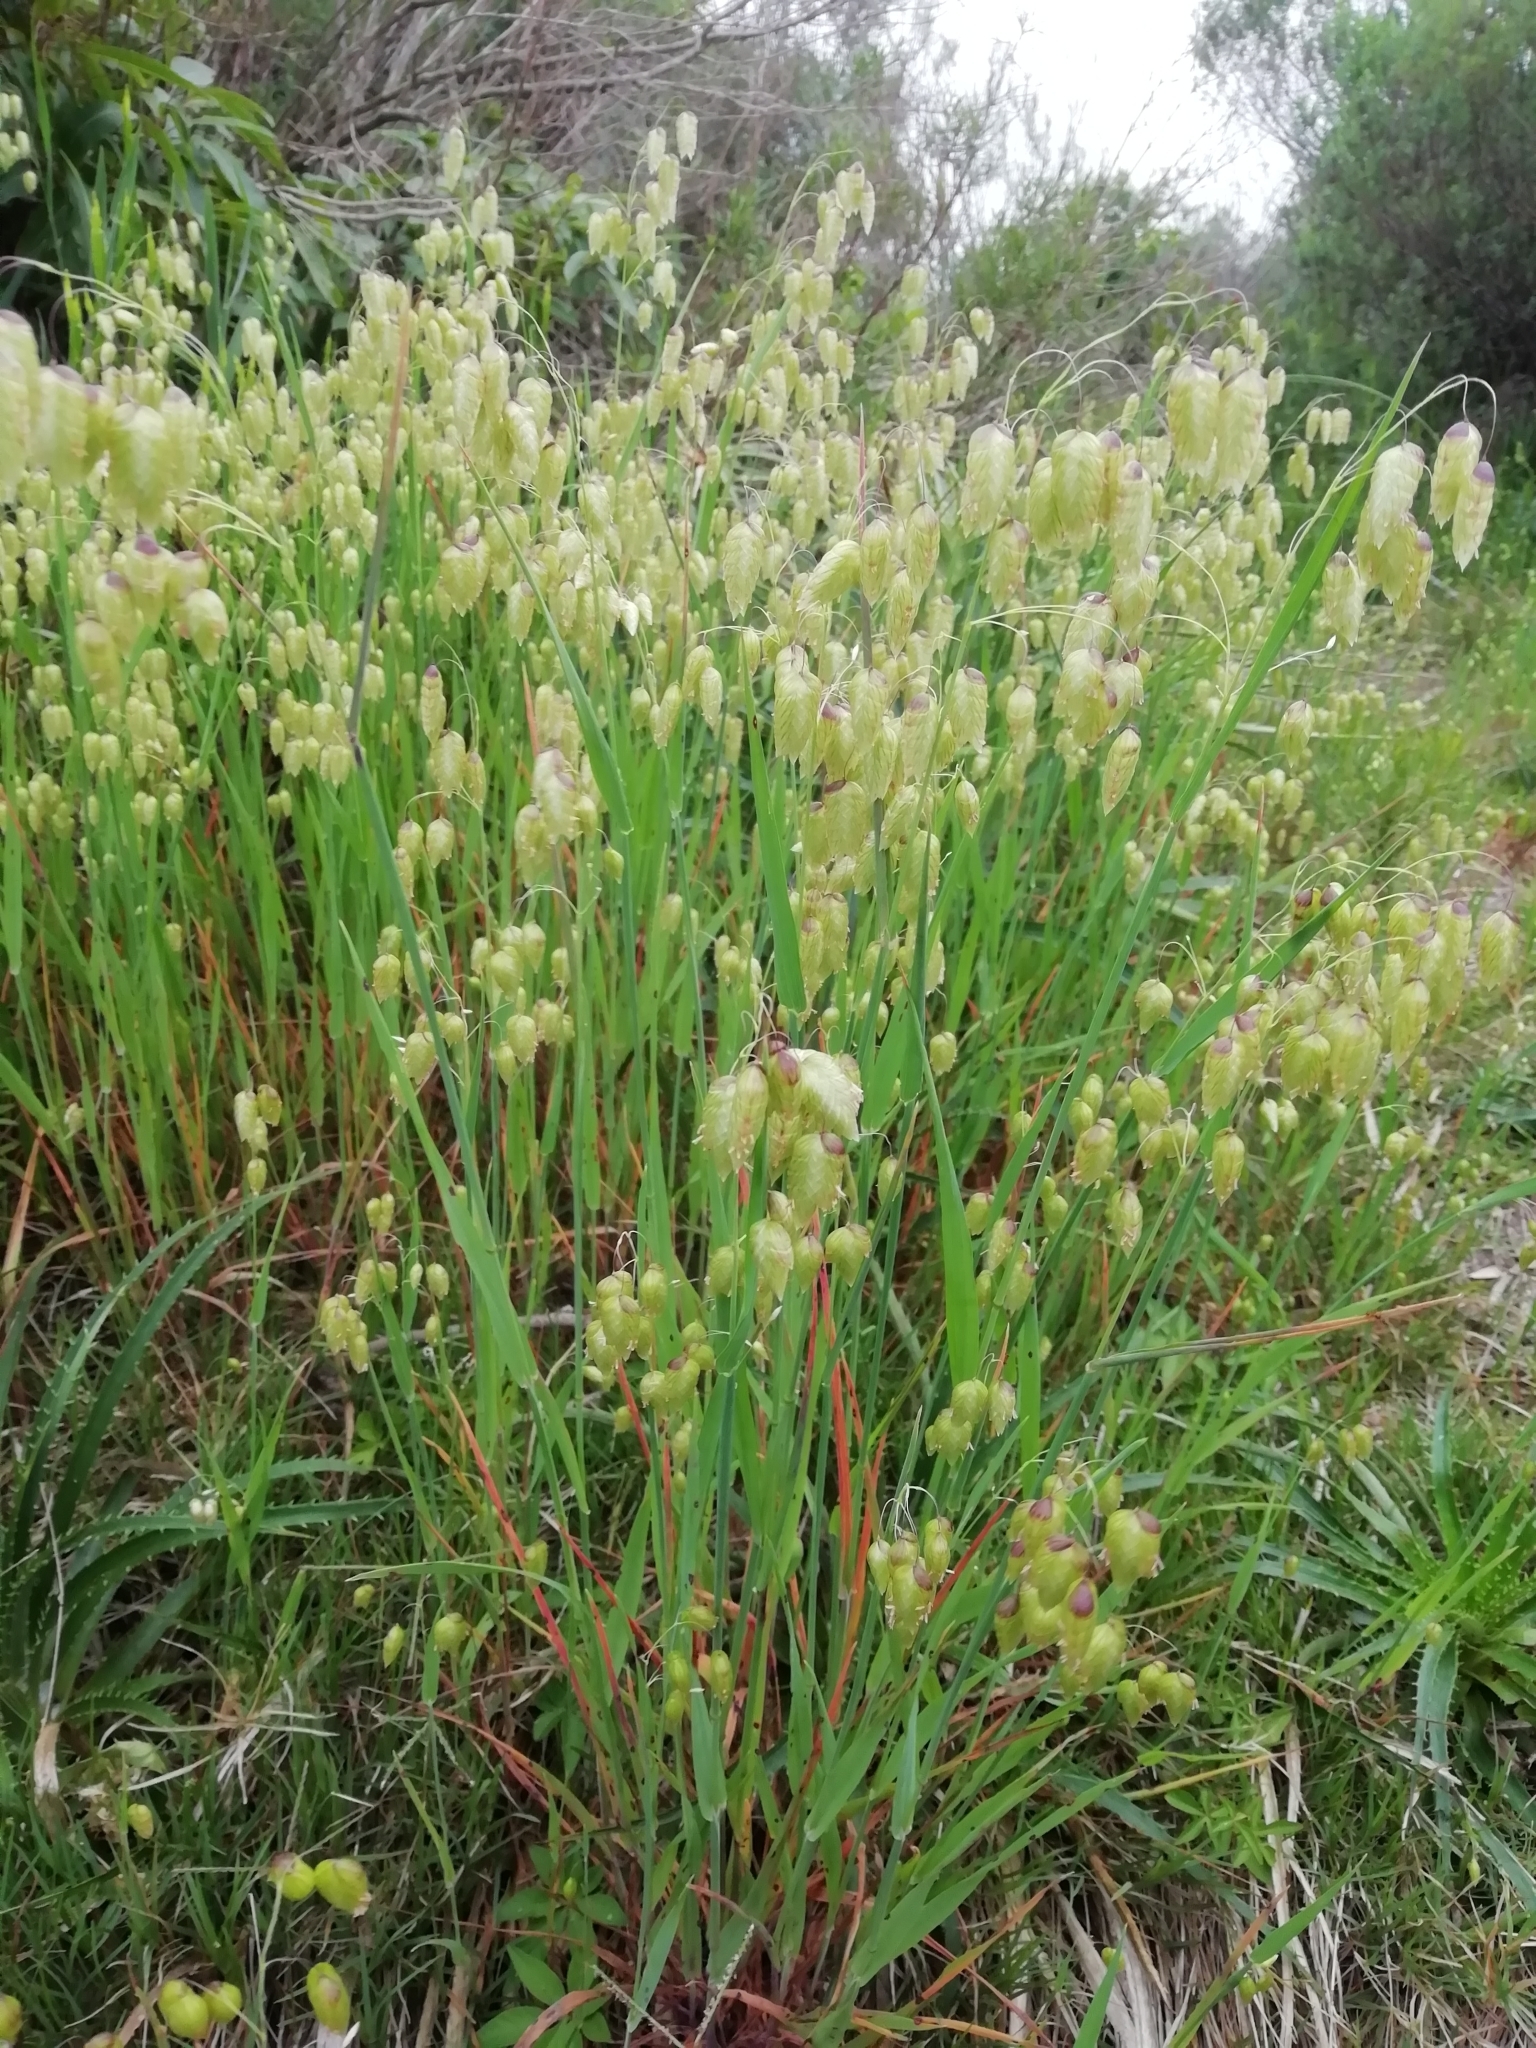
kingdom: Plantae
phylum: Tracheophyta
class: Liliopsida
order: Poales
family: Poaceae
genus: Briza
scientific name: Briza maxima
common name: Big quakinggrass
